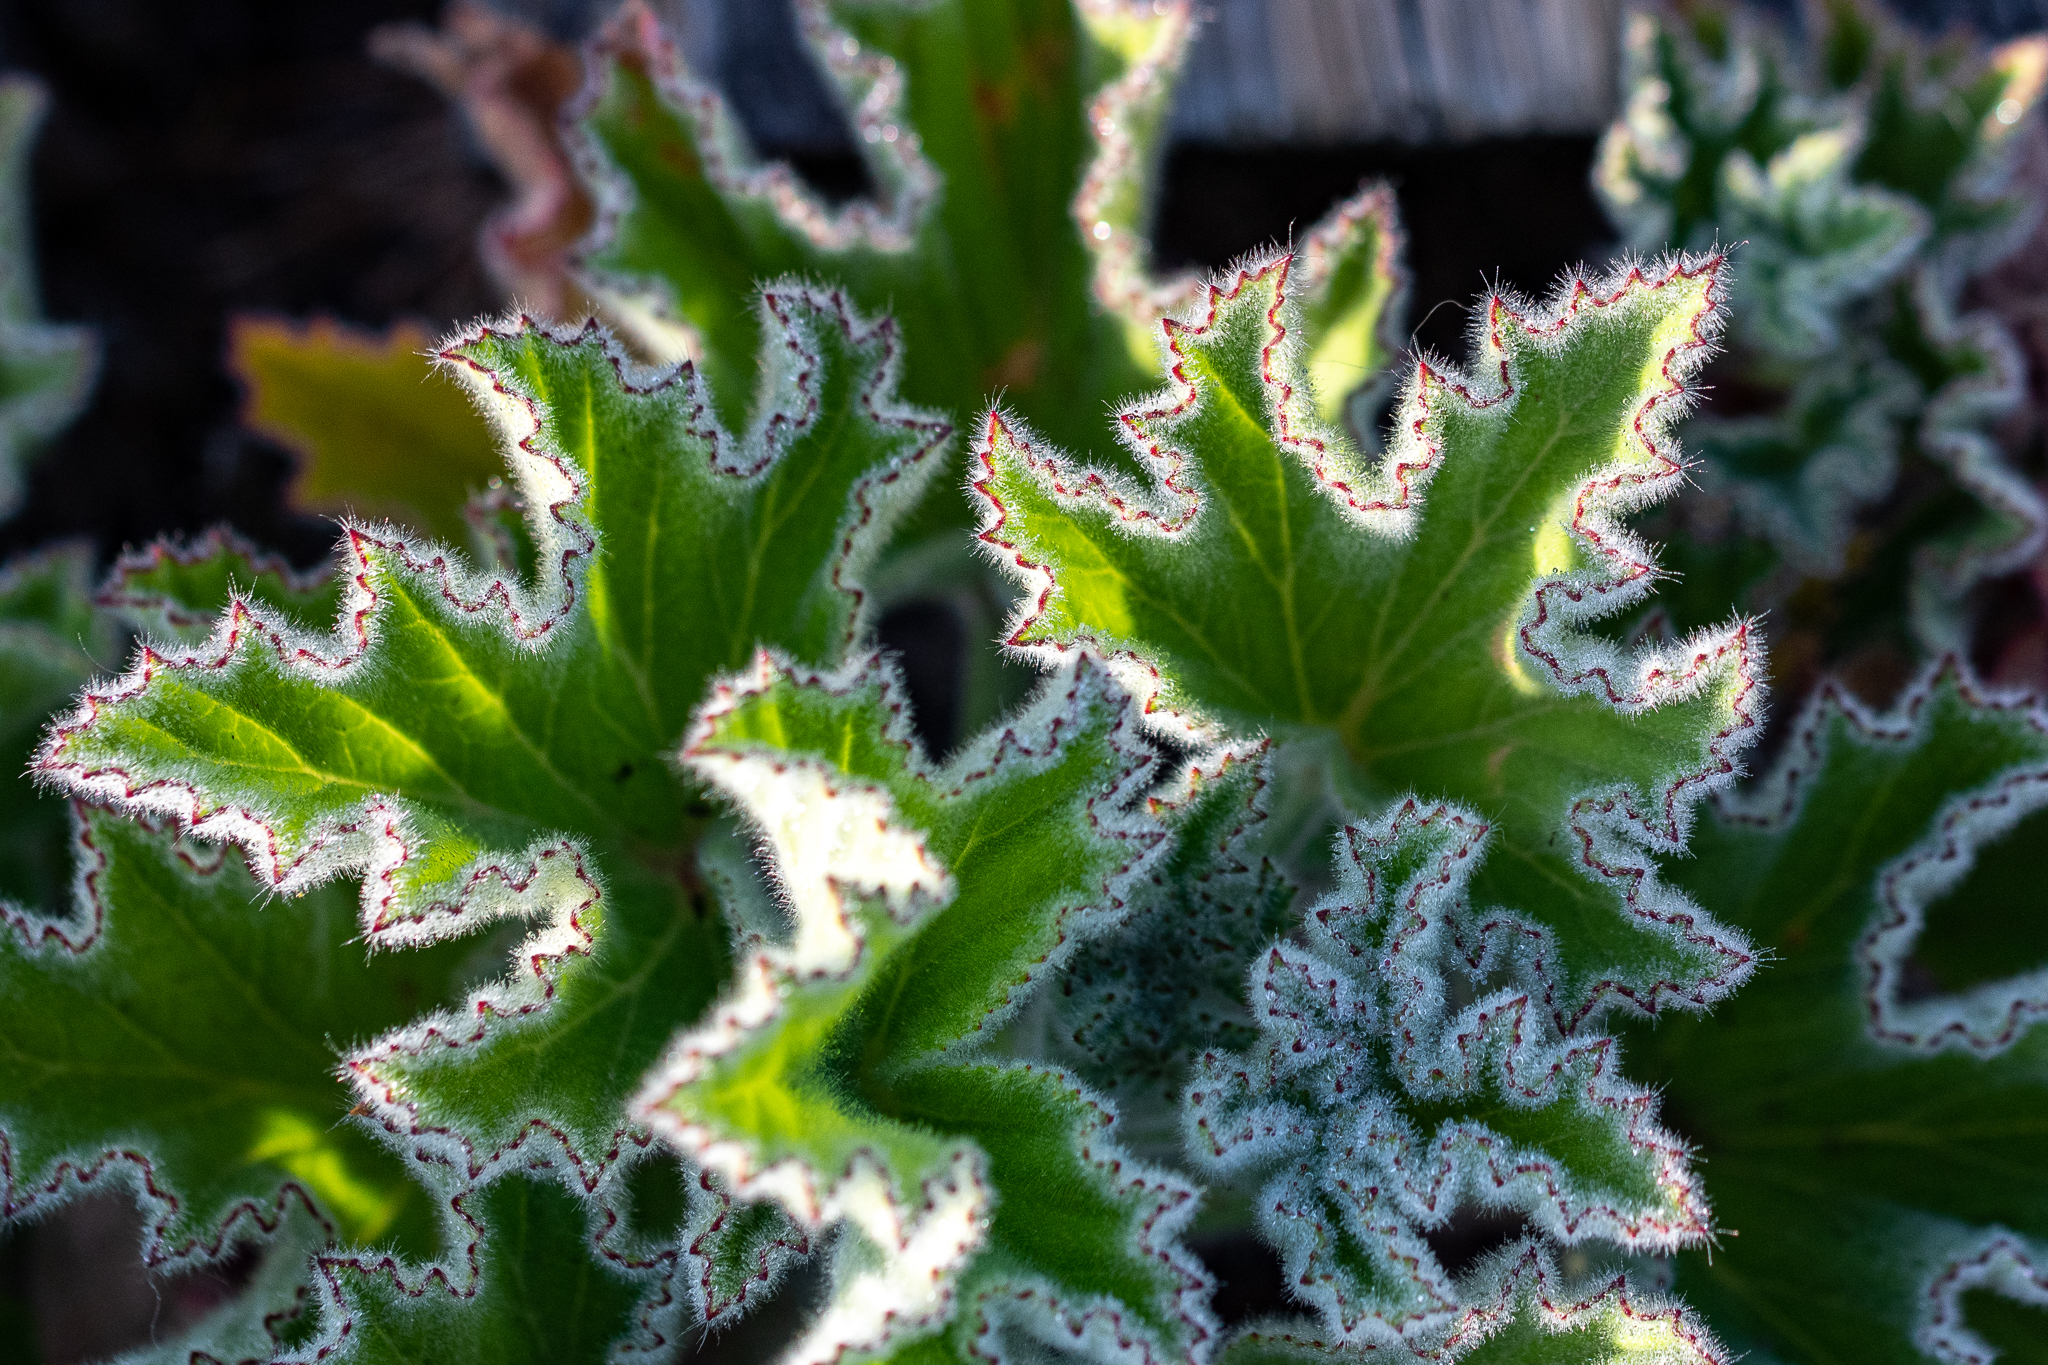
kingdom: Plantae
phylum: Tracheophyta
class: Magnoliopsida
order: Geraniales
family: Geraniaceae
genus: Pelargonium
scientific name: Pelargonium cucullatum
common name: Tree pelargonium
